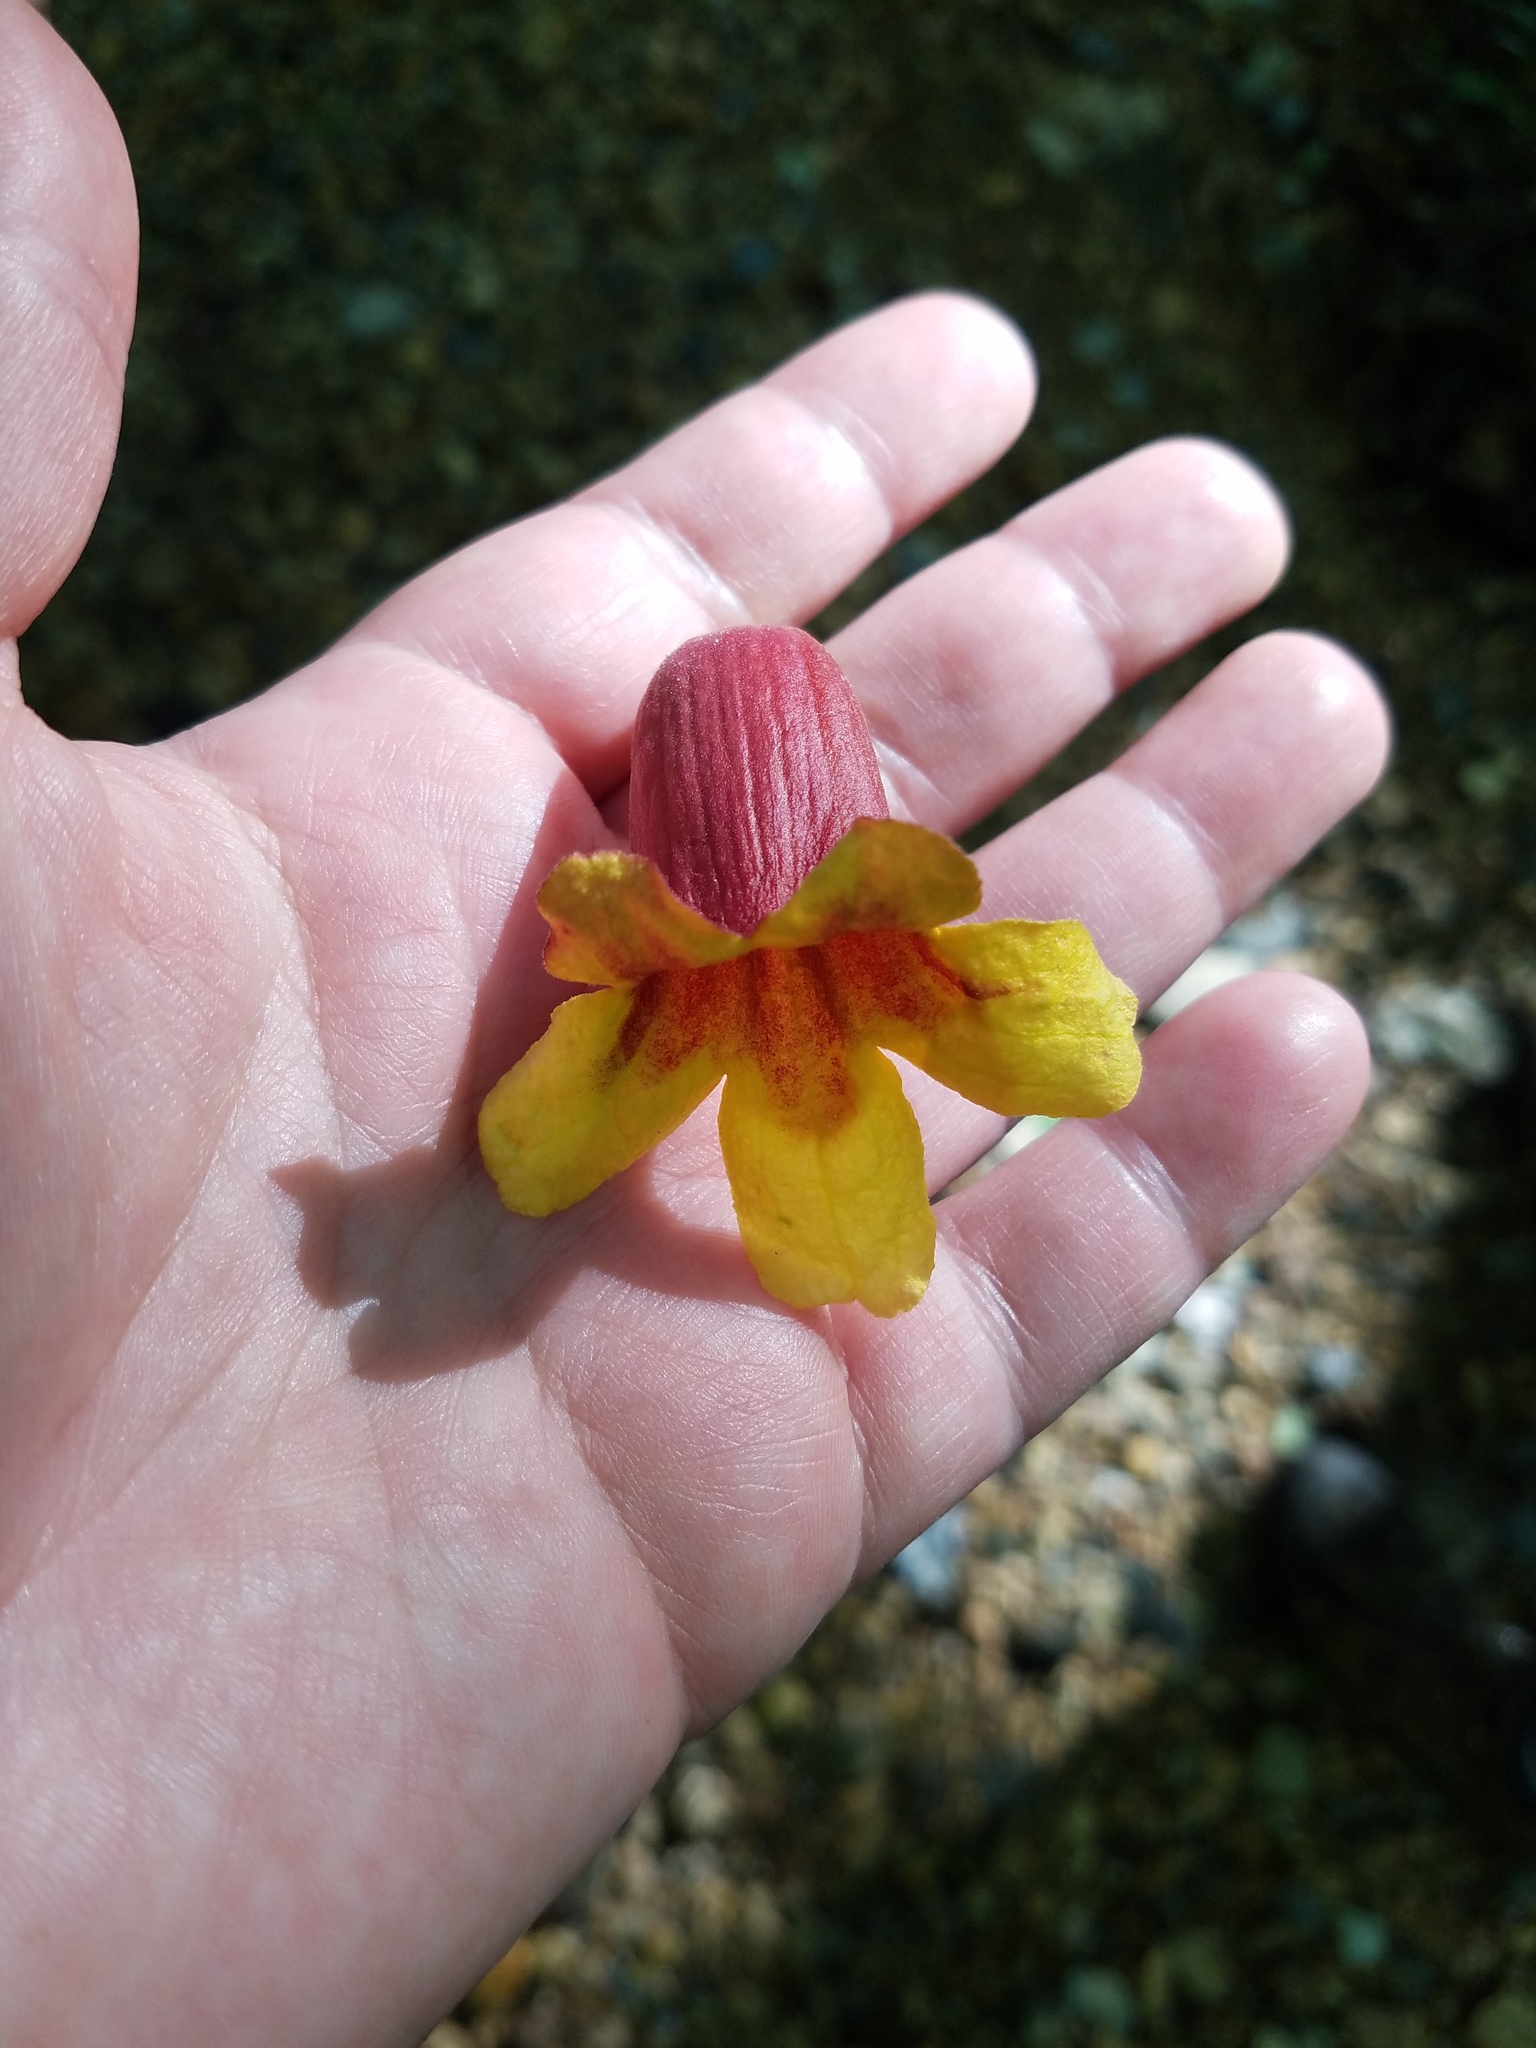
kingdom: Plantae
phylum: Tracheophyta
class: Magnoliopsida
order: Lamiales
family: Bignoniaceae
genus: Bignonia
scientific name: Bignonia capreolata
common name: Crossvine
